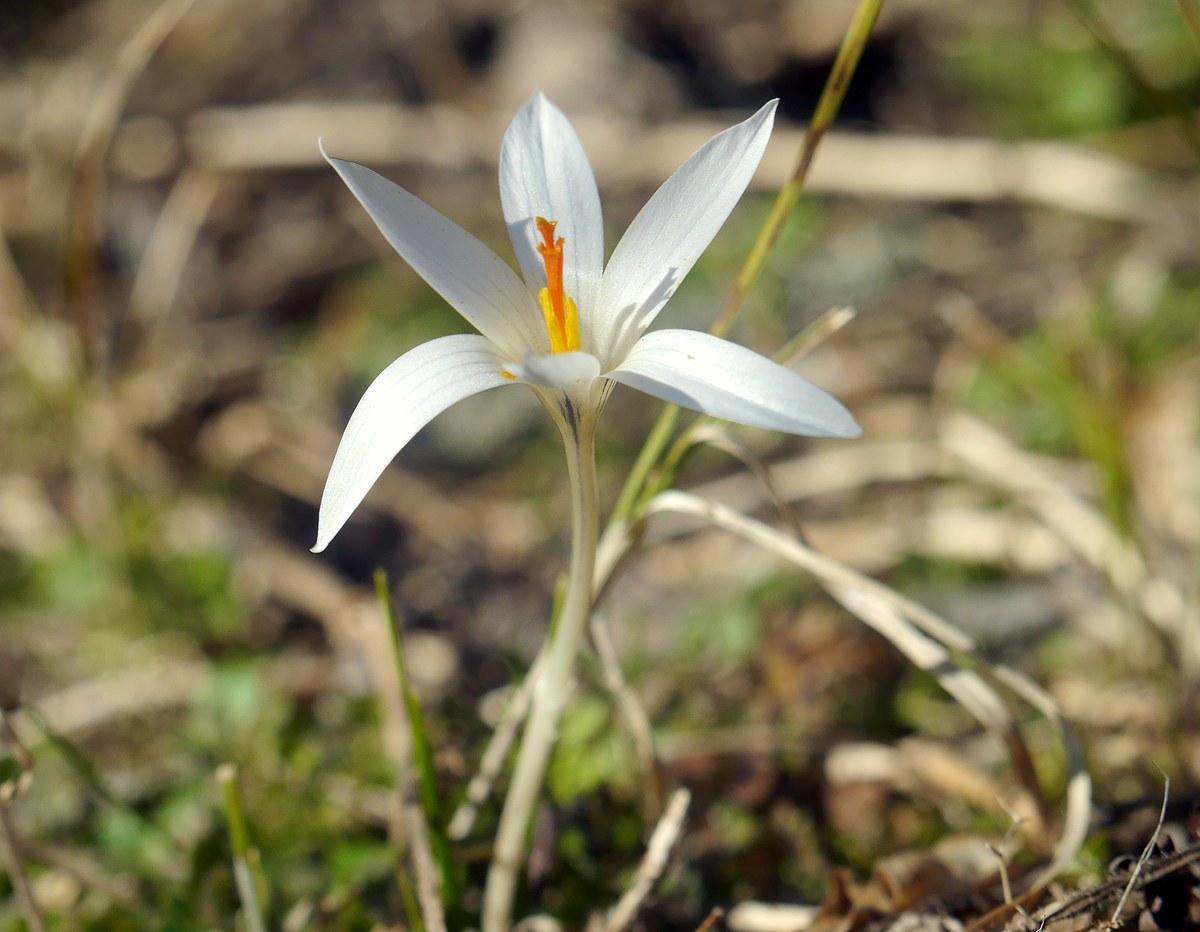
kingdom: Plantae
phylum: Tracheophyta
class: Liliopsida
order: Asparagales
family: Iridaceae
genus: Crocus
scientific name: Crocus reticulatus
